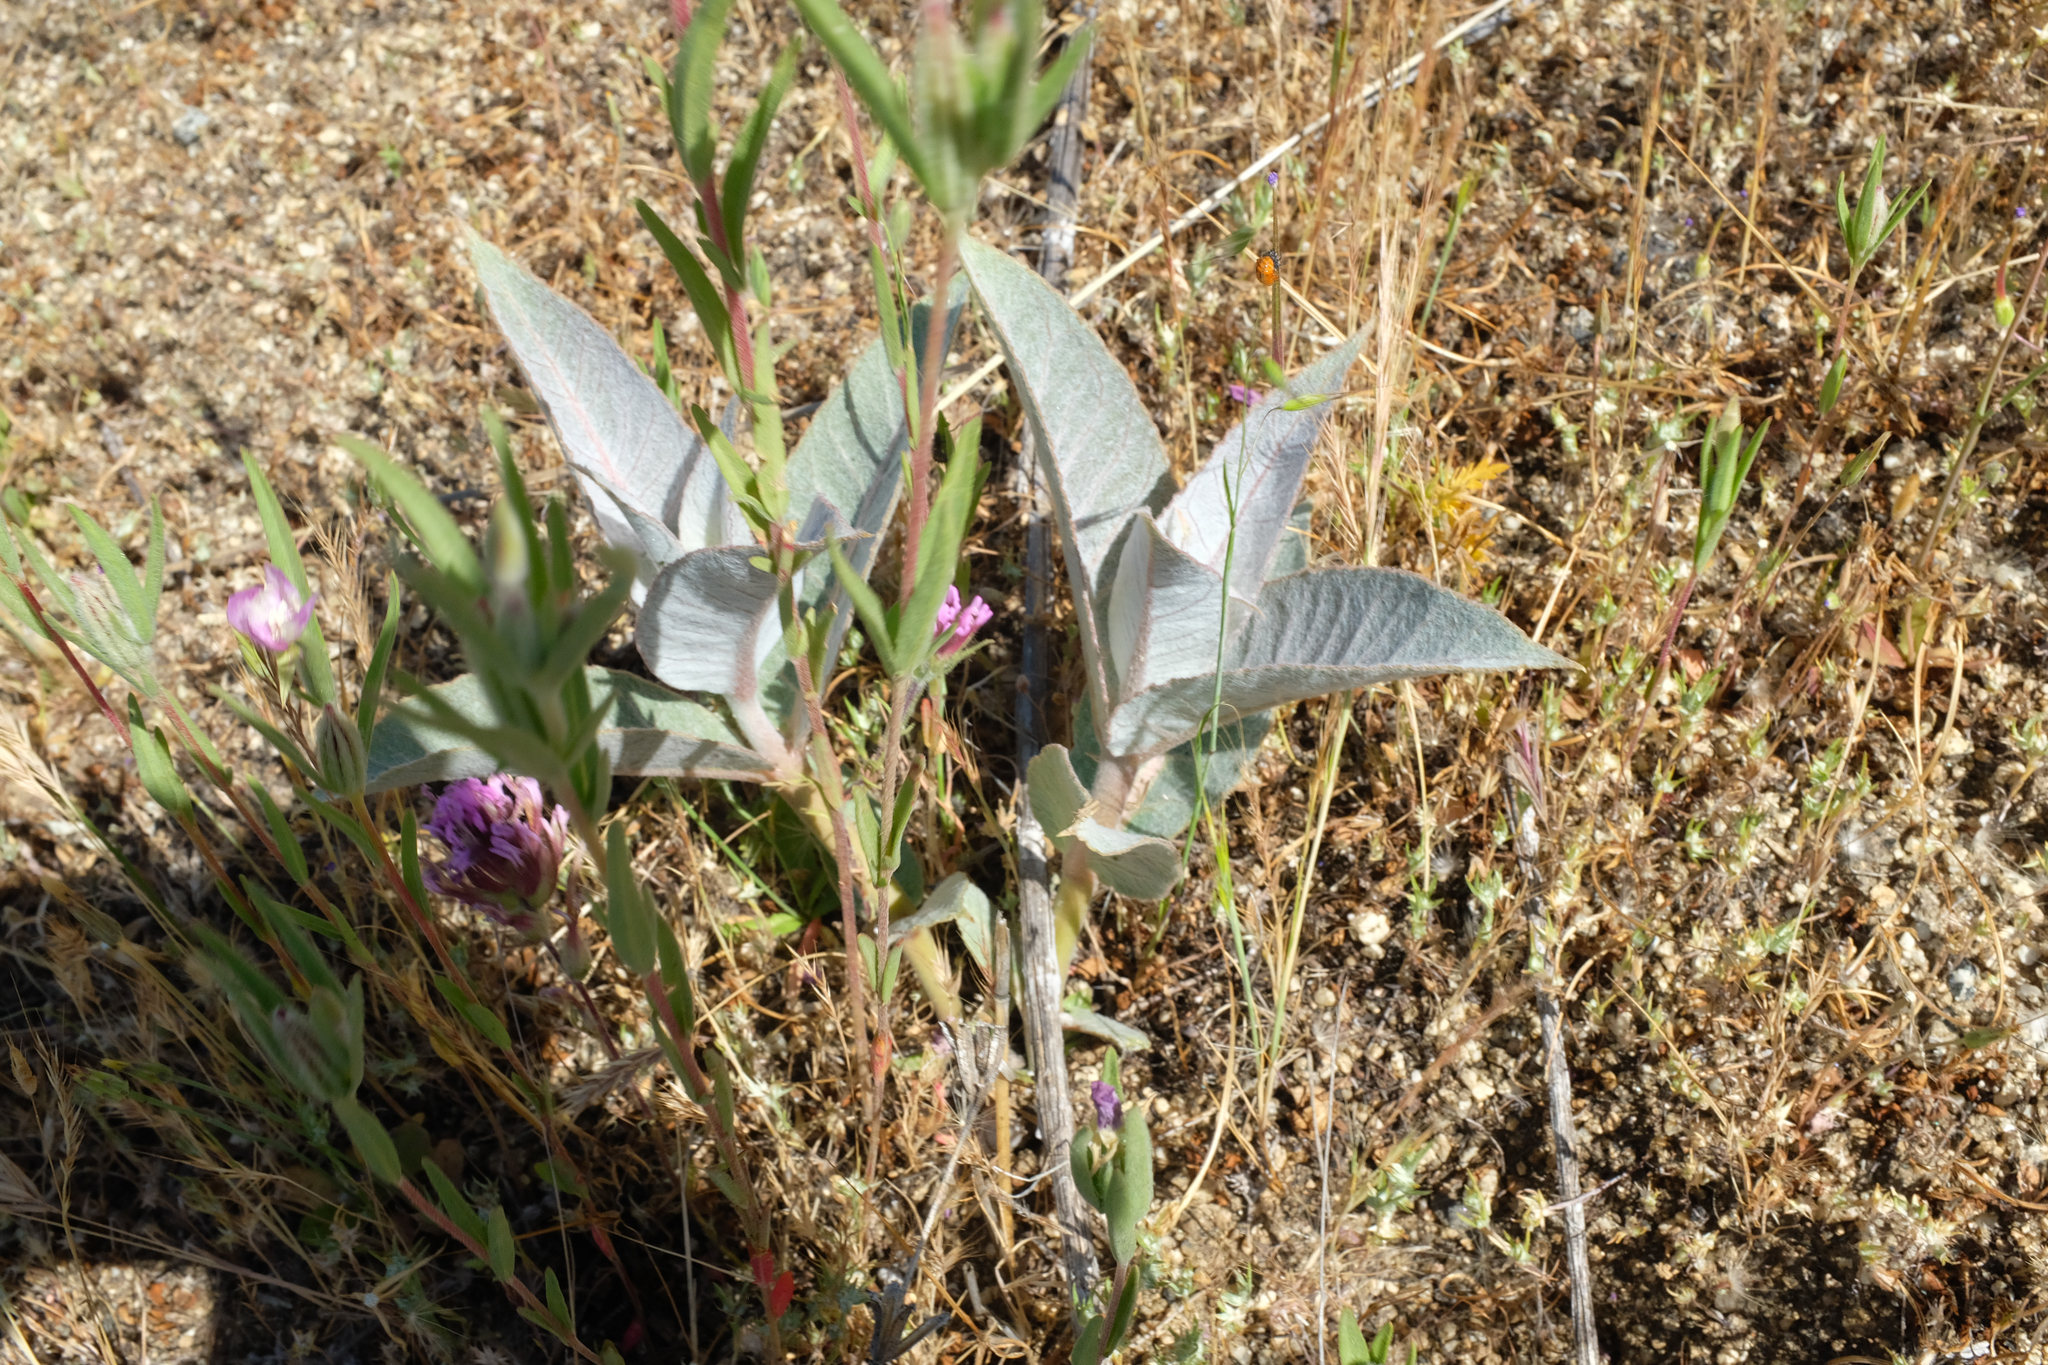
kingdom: Plantae
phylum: Tracheophyta
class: Magnoliopsida
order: Gentianales
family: Apocynaceae
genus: Asclepias
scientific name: Asclepias erosa
